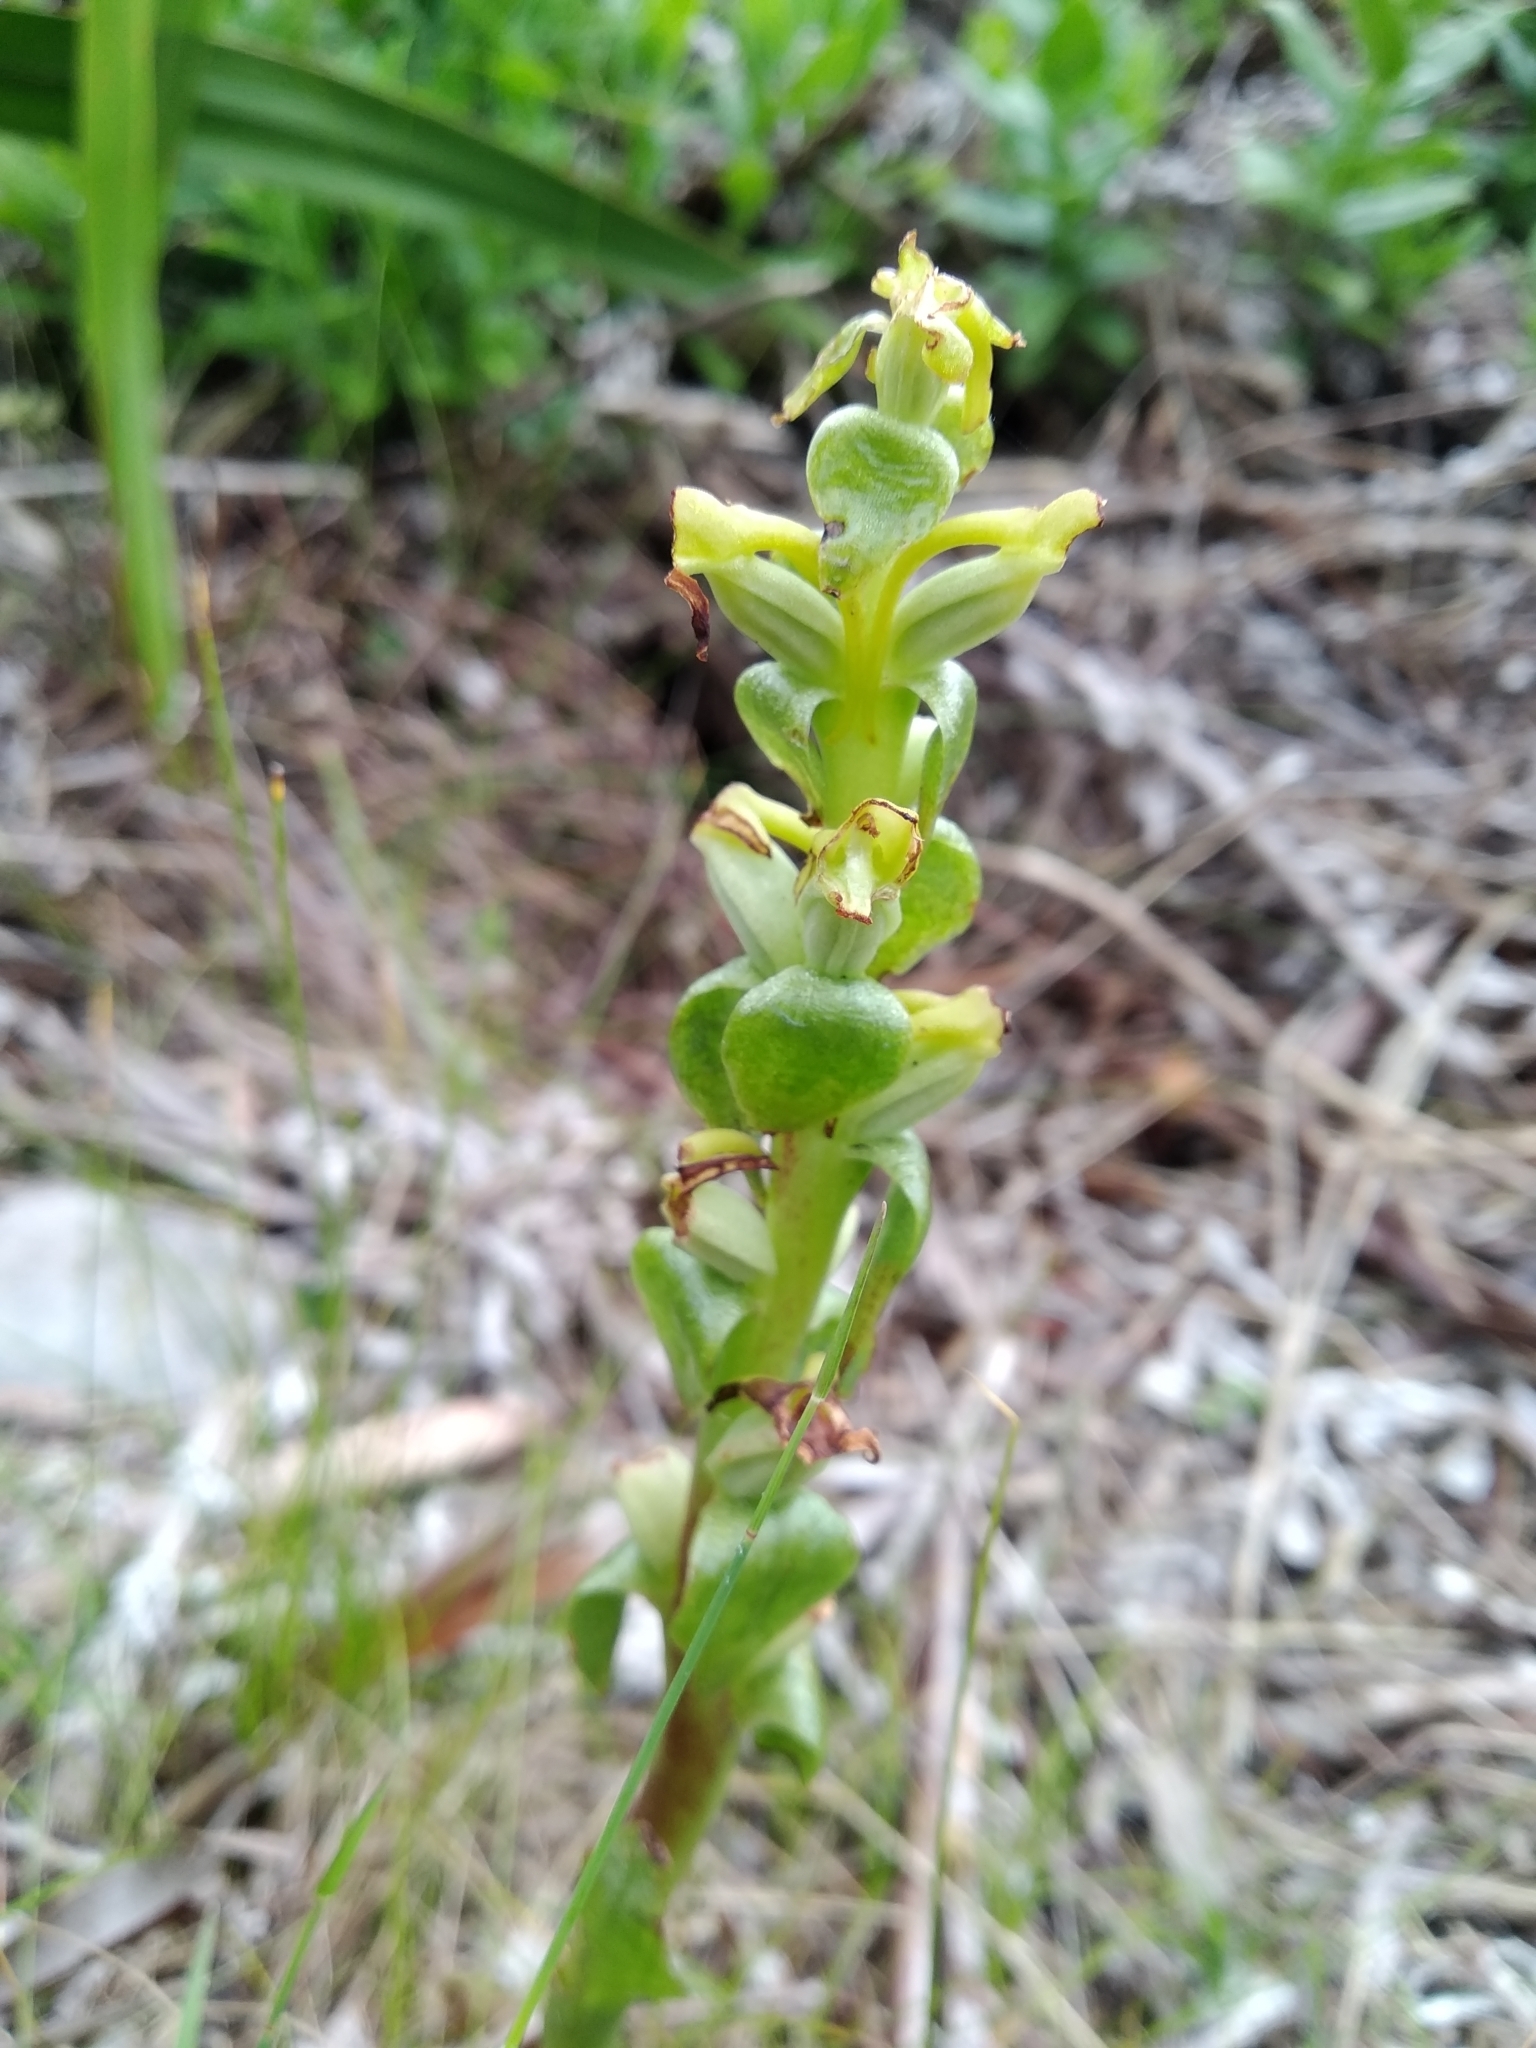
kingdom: Plantae
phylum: Tracheophyta
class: Liliopsida
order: Asparagales
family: Orchidaceae
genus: Satyrium
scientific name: Satyrium odorum
